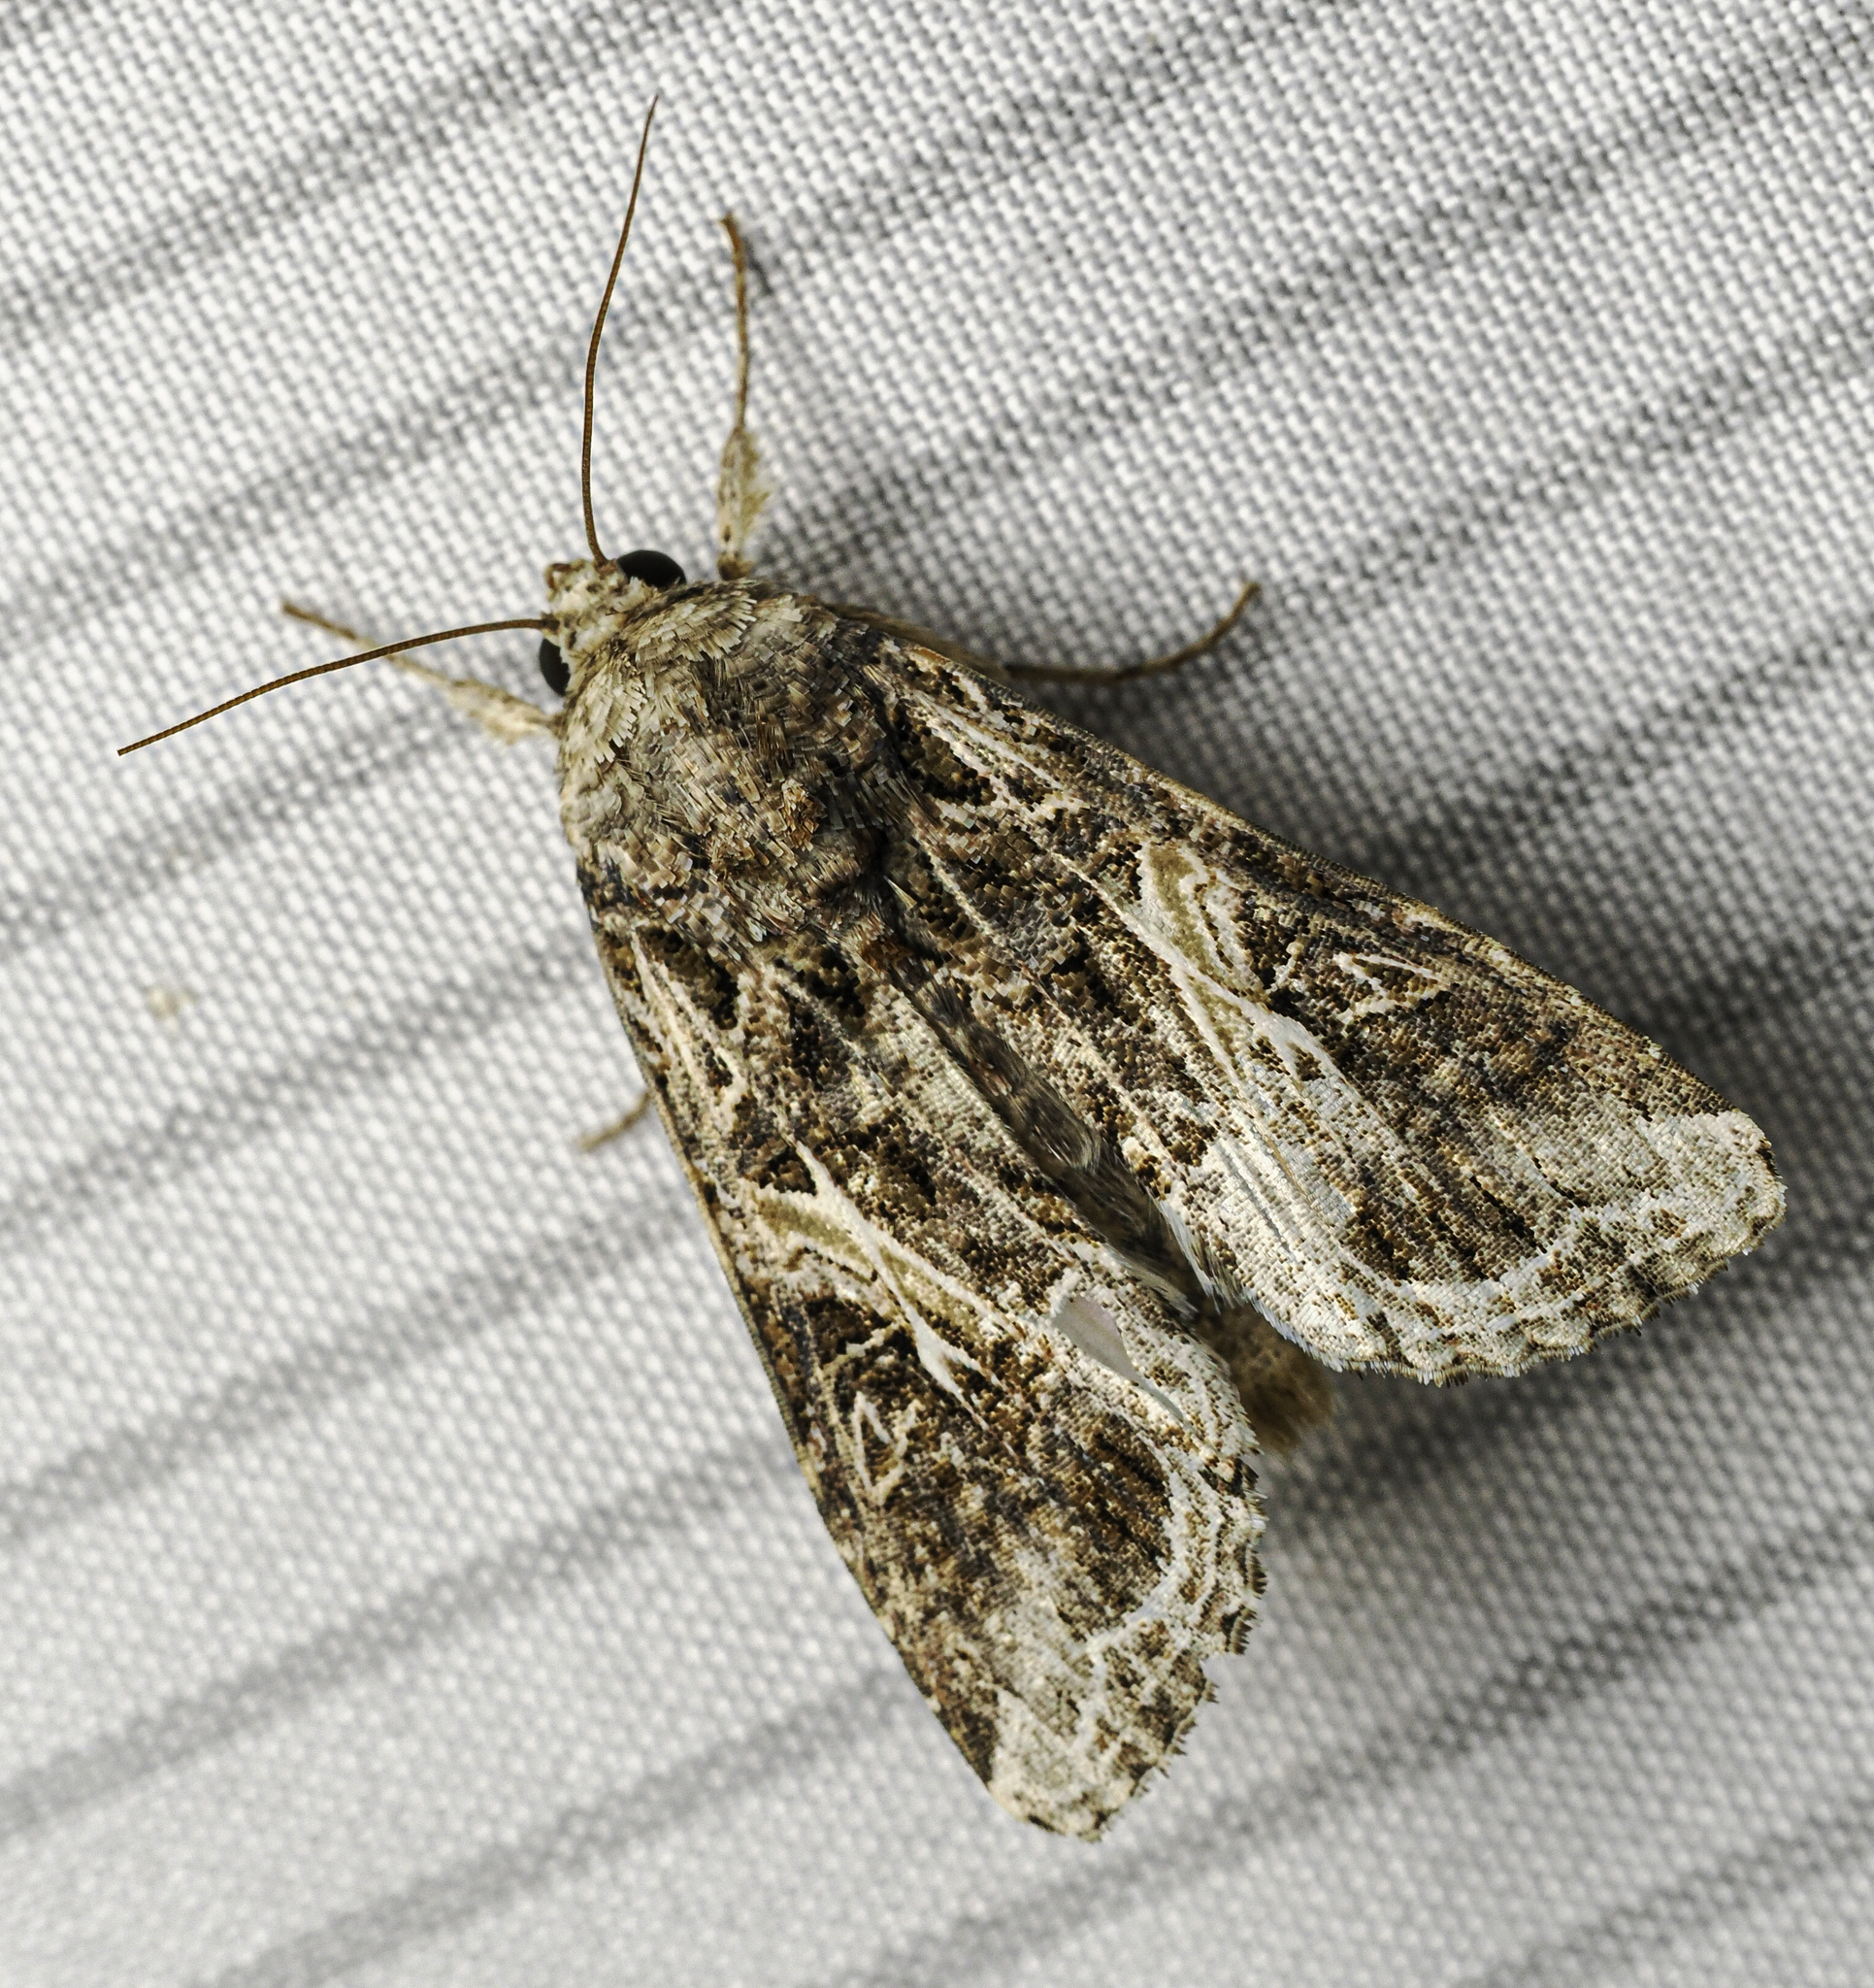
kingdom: Animalia
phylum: Arthropoda
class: Insecta
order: Lepidoptera
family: Noctuidae
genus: Spodoptera
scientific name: Spodoptera ornithogalli
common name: Yellow-striped armyworm
